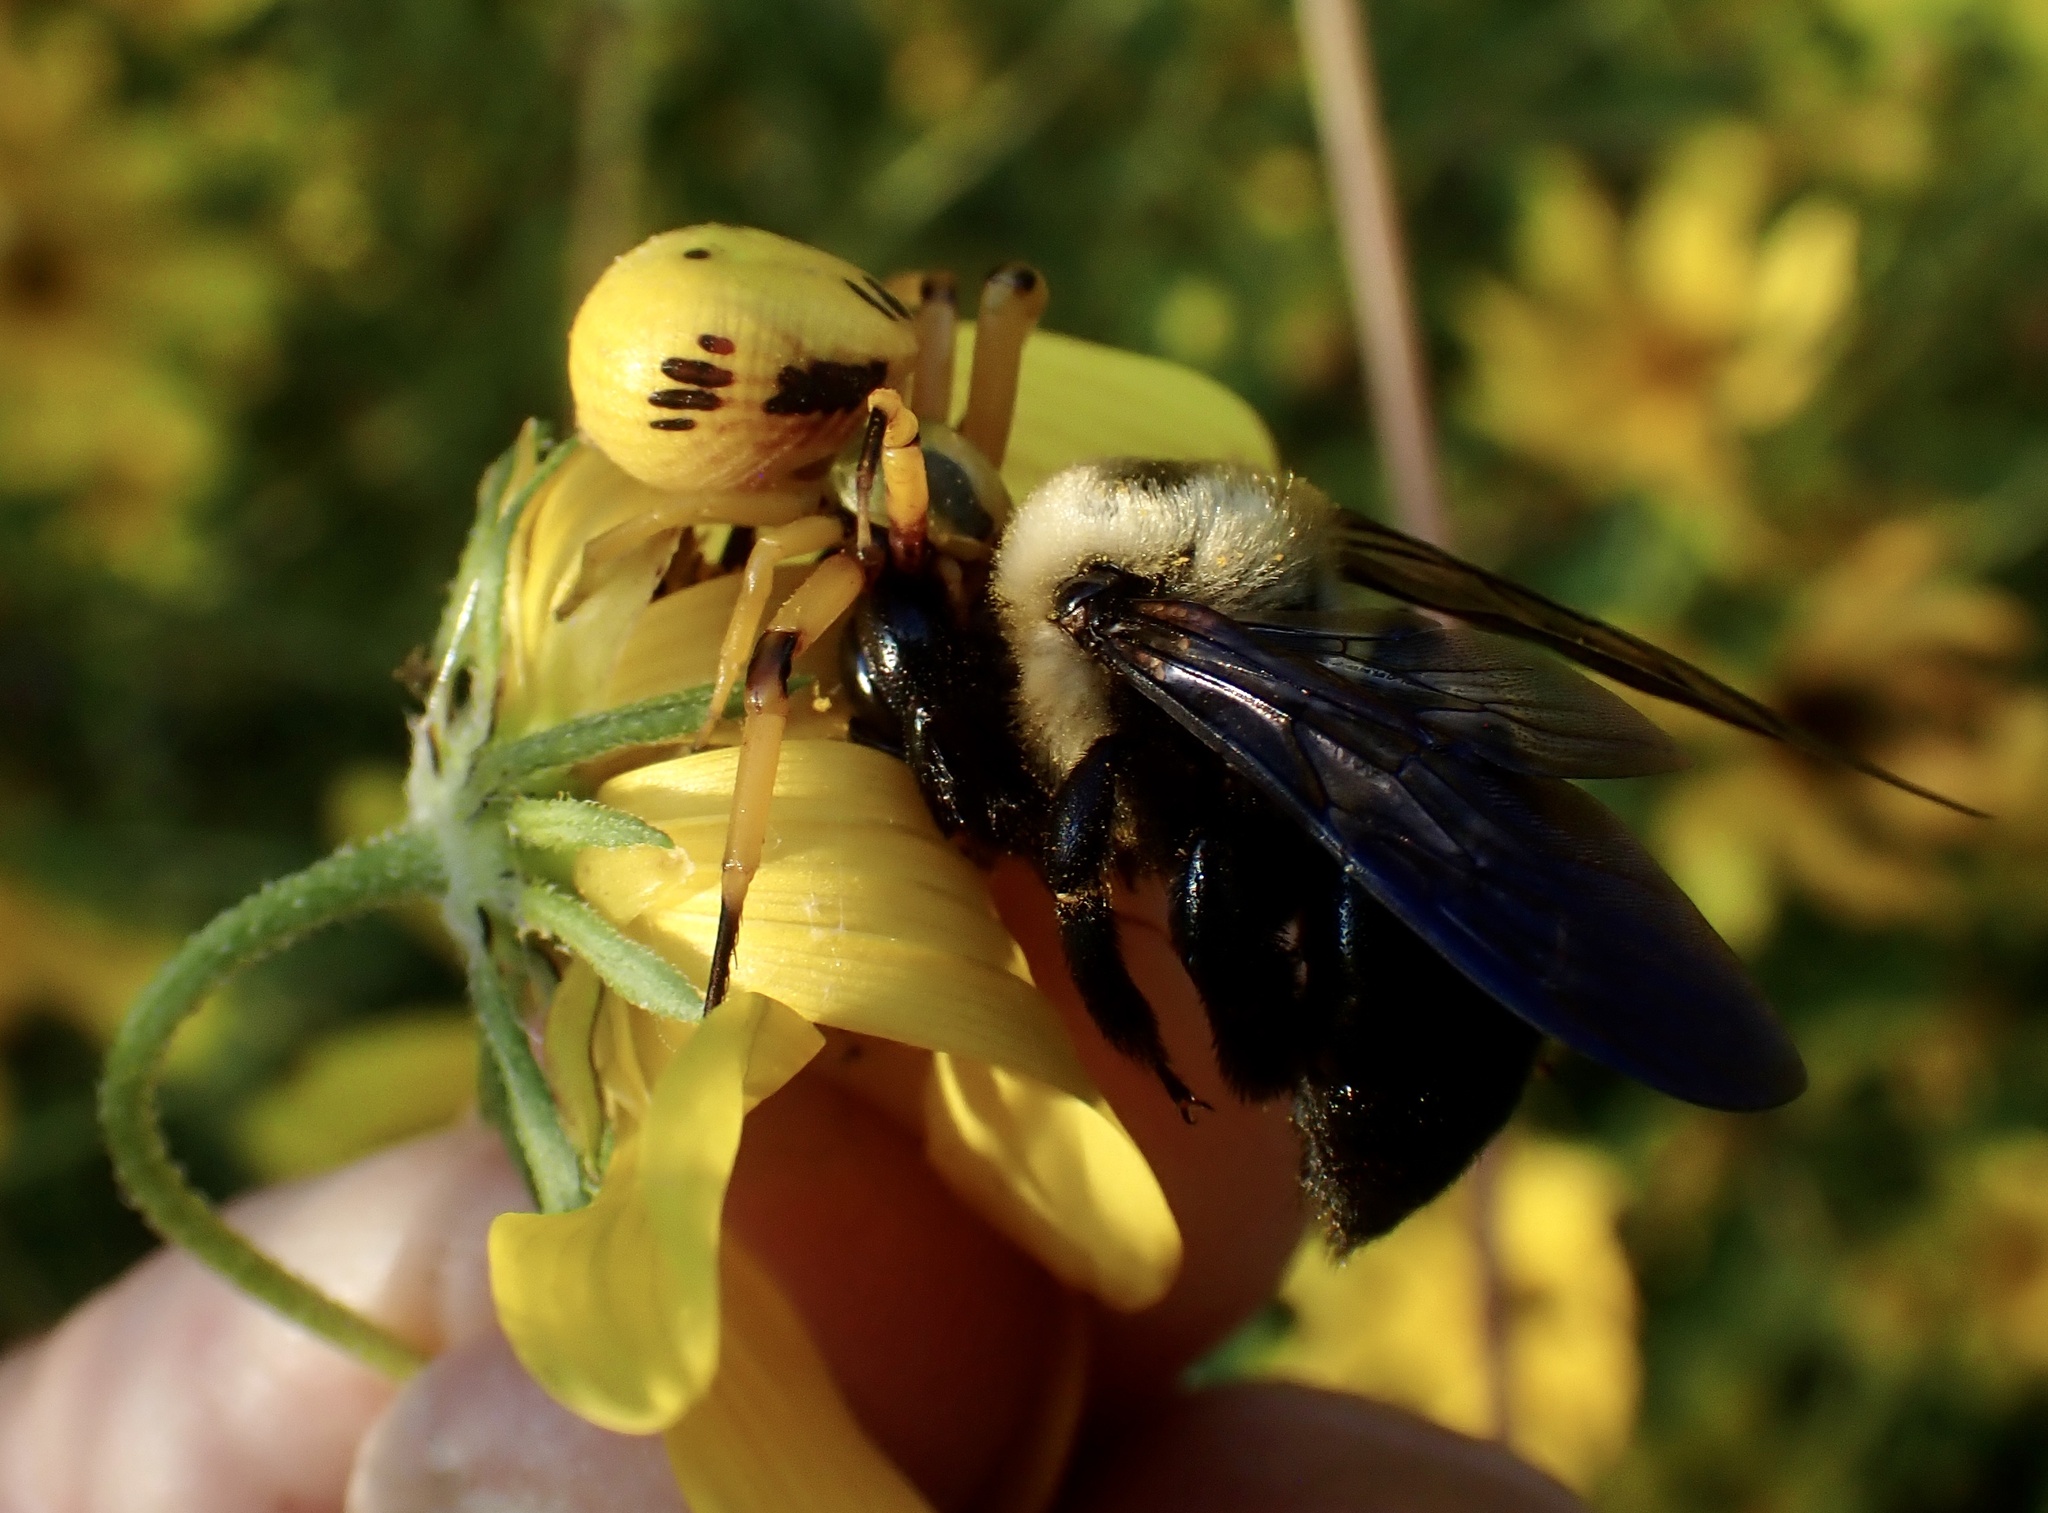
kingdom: Animalia
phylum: Arthropoda
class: Arachnida
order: Araneae
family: Thomisidae
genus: Misumenoides
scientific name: Misumenoides formosipes
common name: White-banded crab spider
